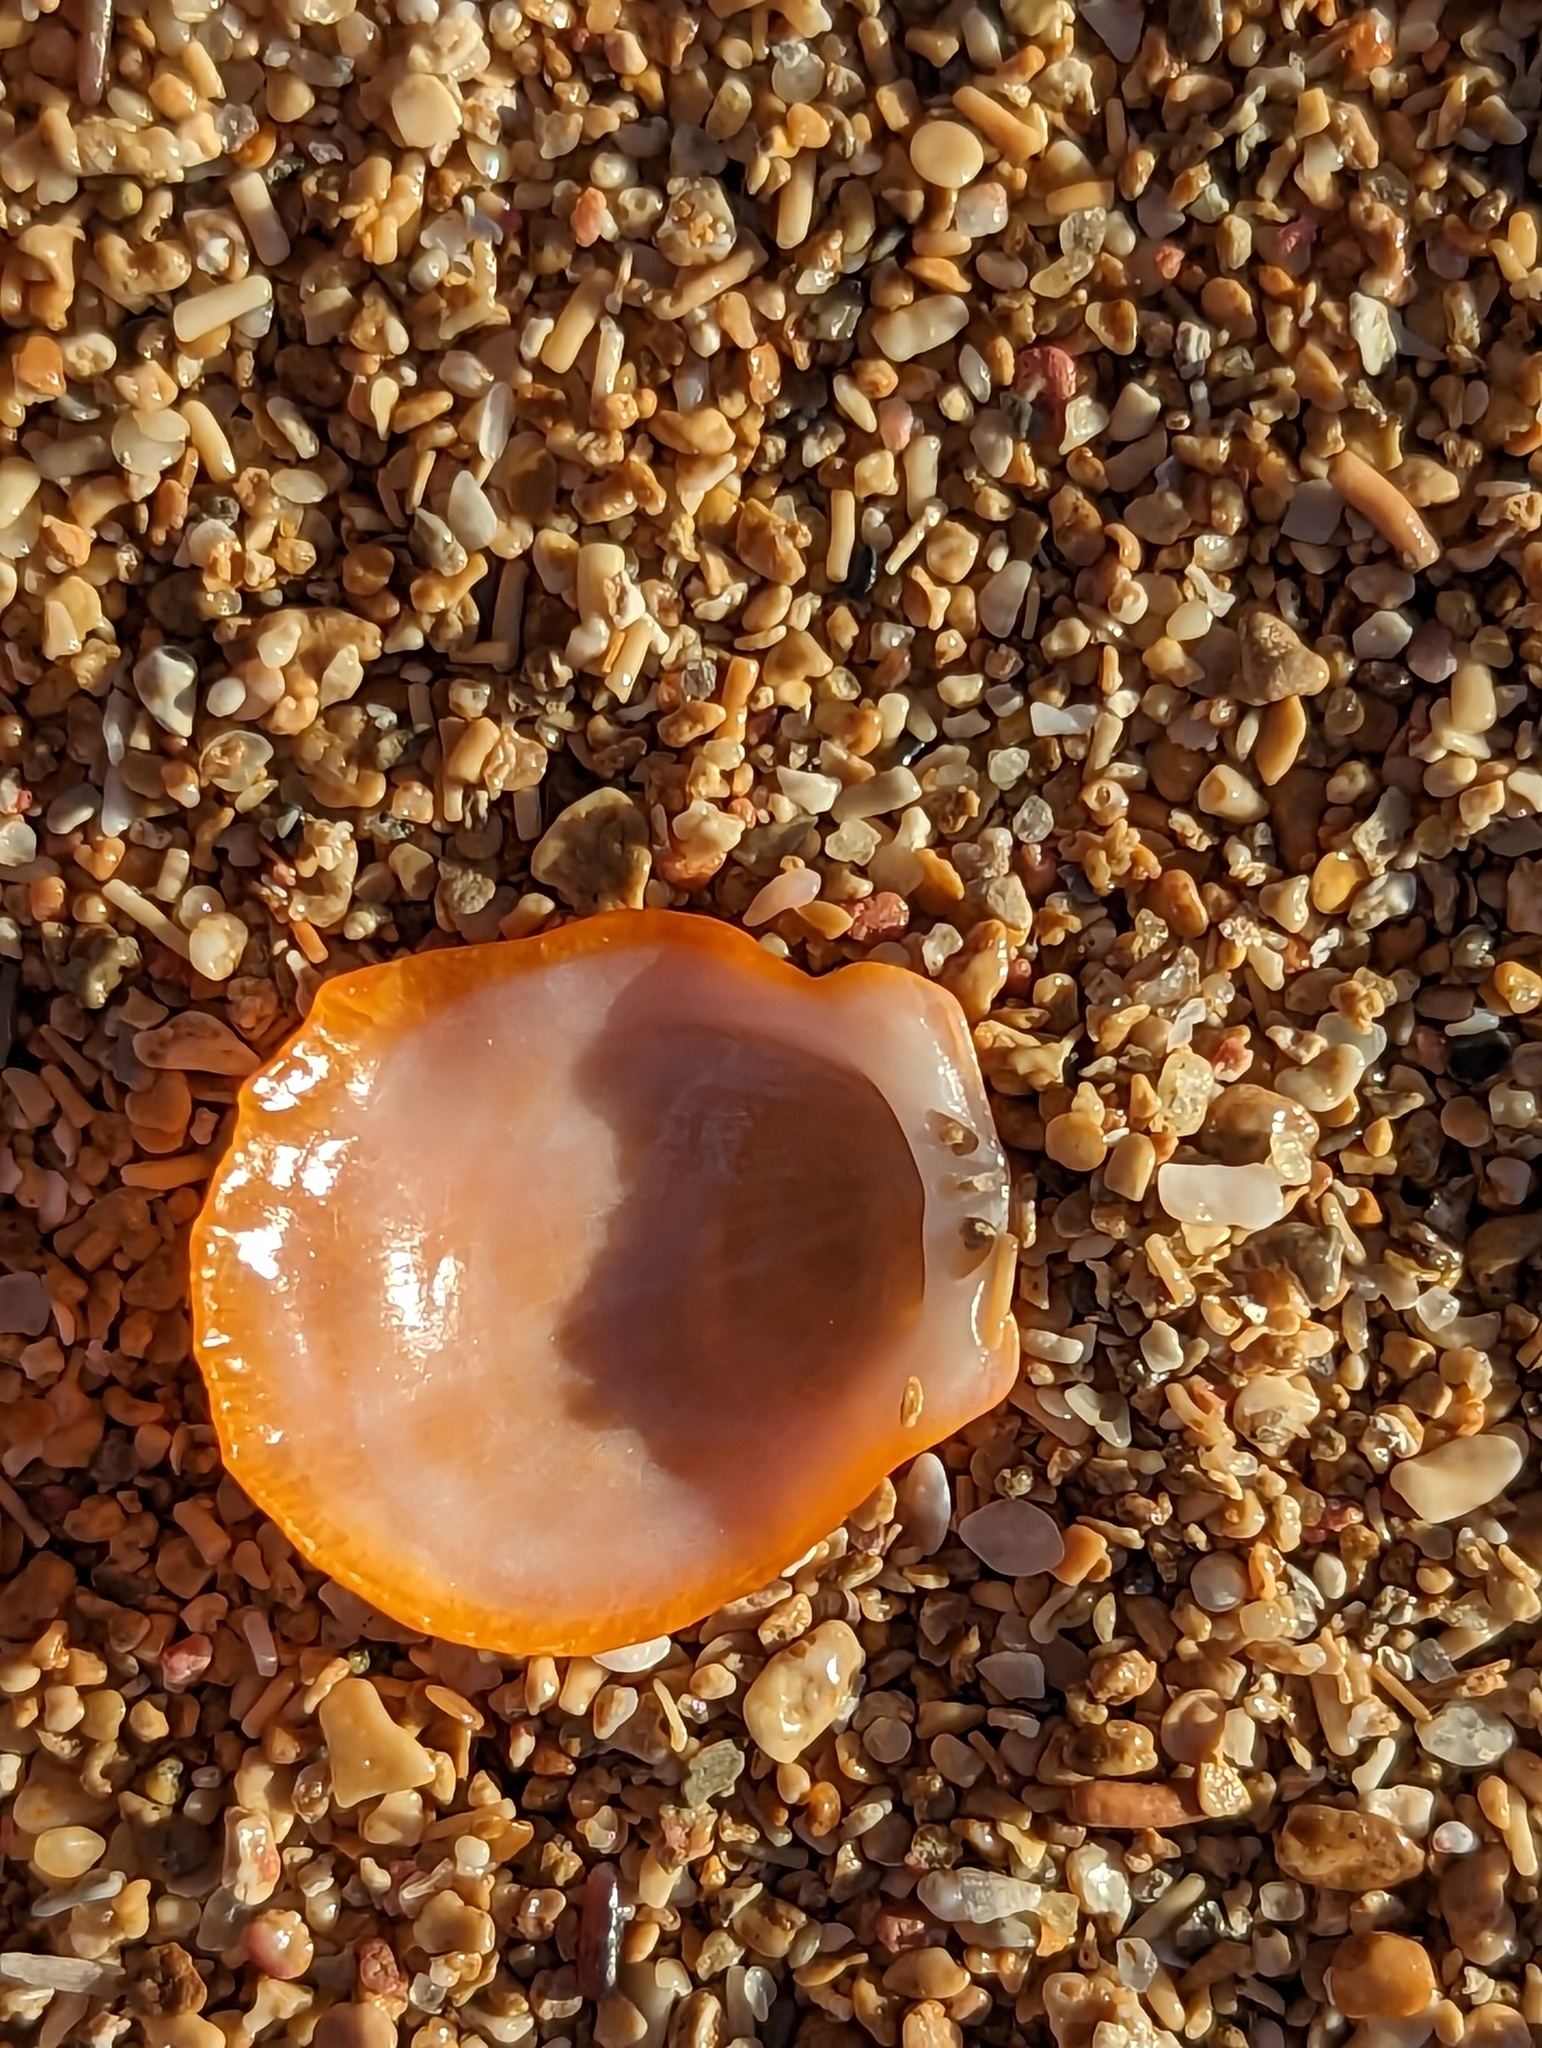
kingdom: Animalia
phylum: Mollusca
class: Bivalvia
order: Pectinida
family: Spondylidae
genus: Spondylus
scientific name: Spondylus tenuis
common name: Digitate thorny oyster
